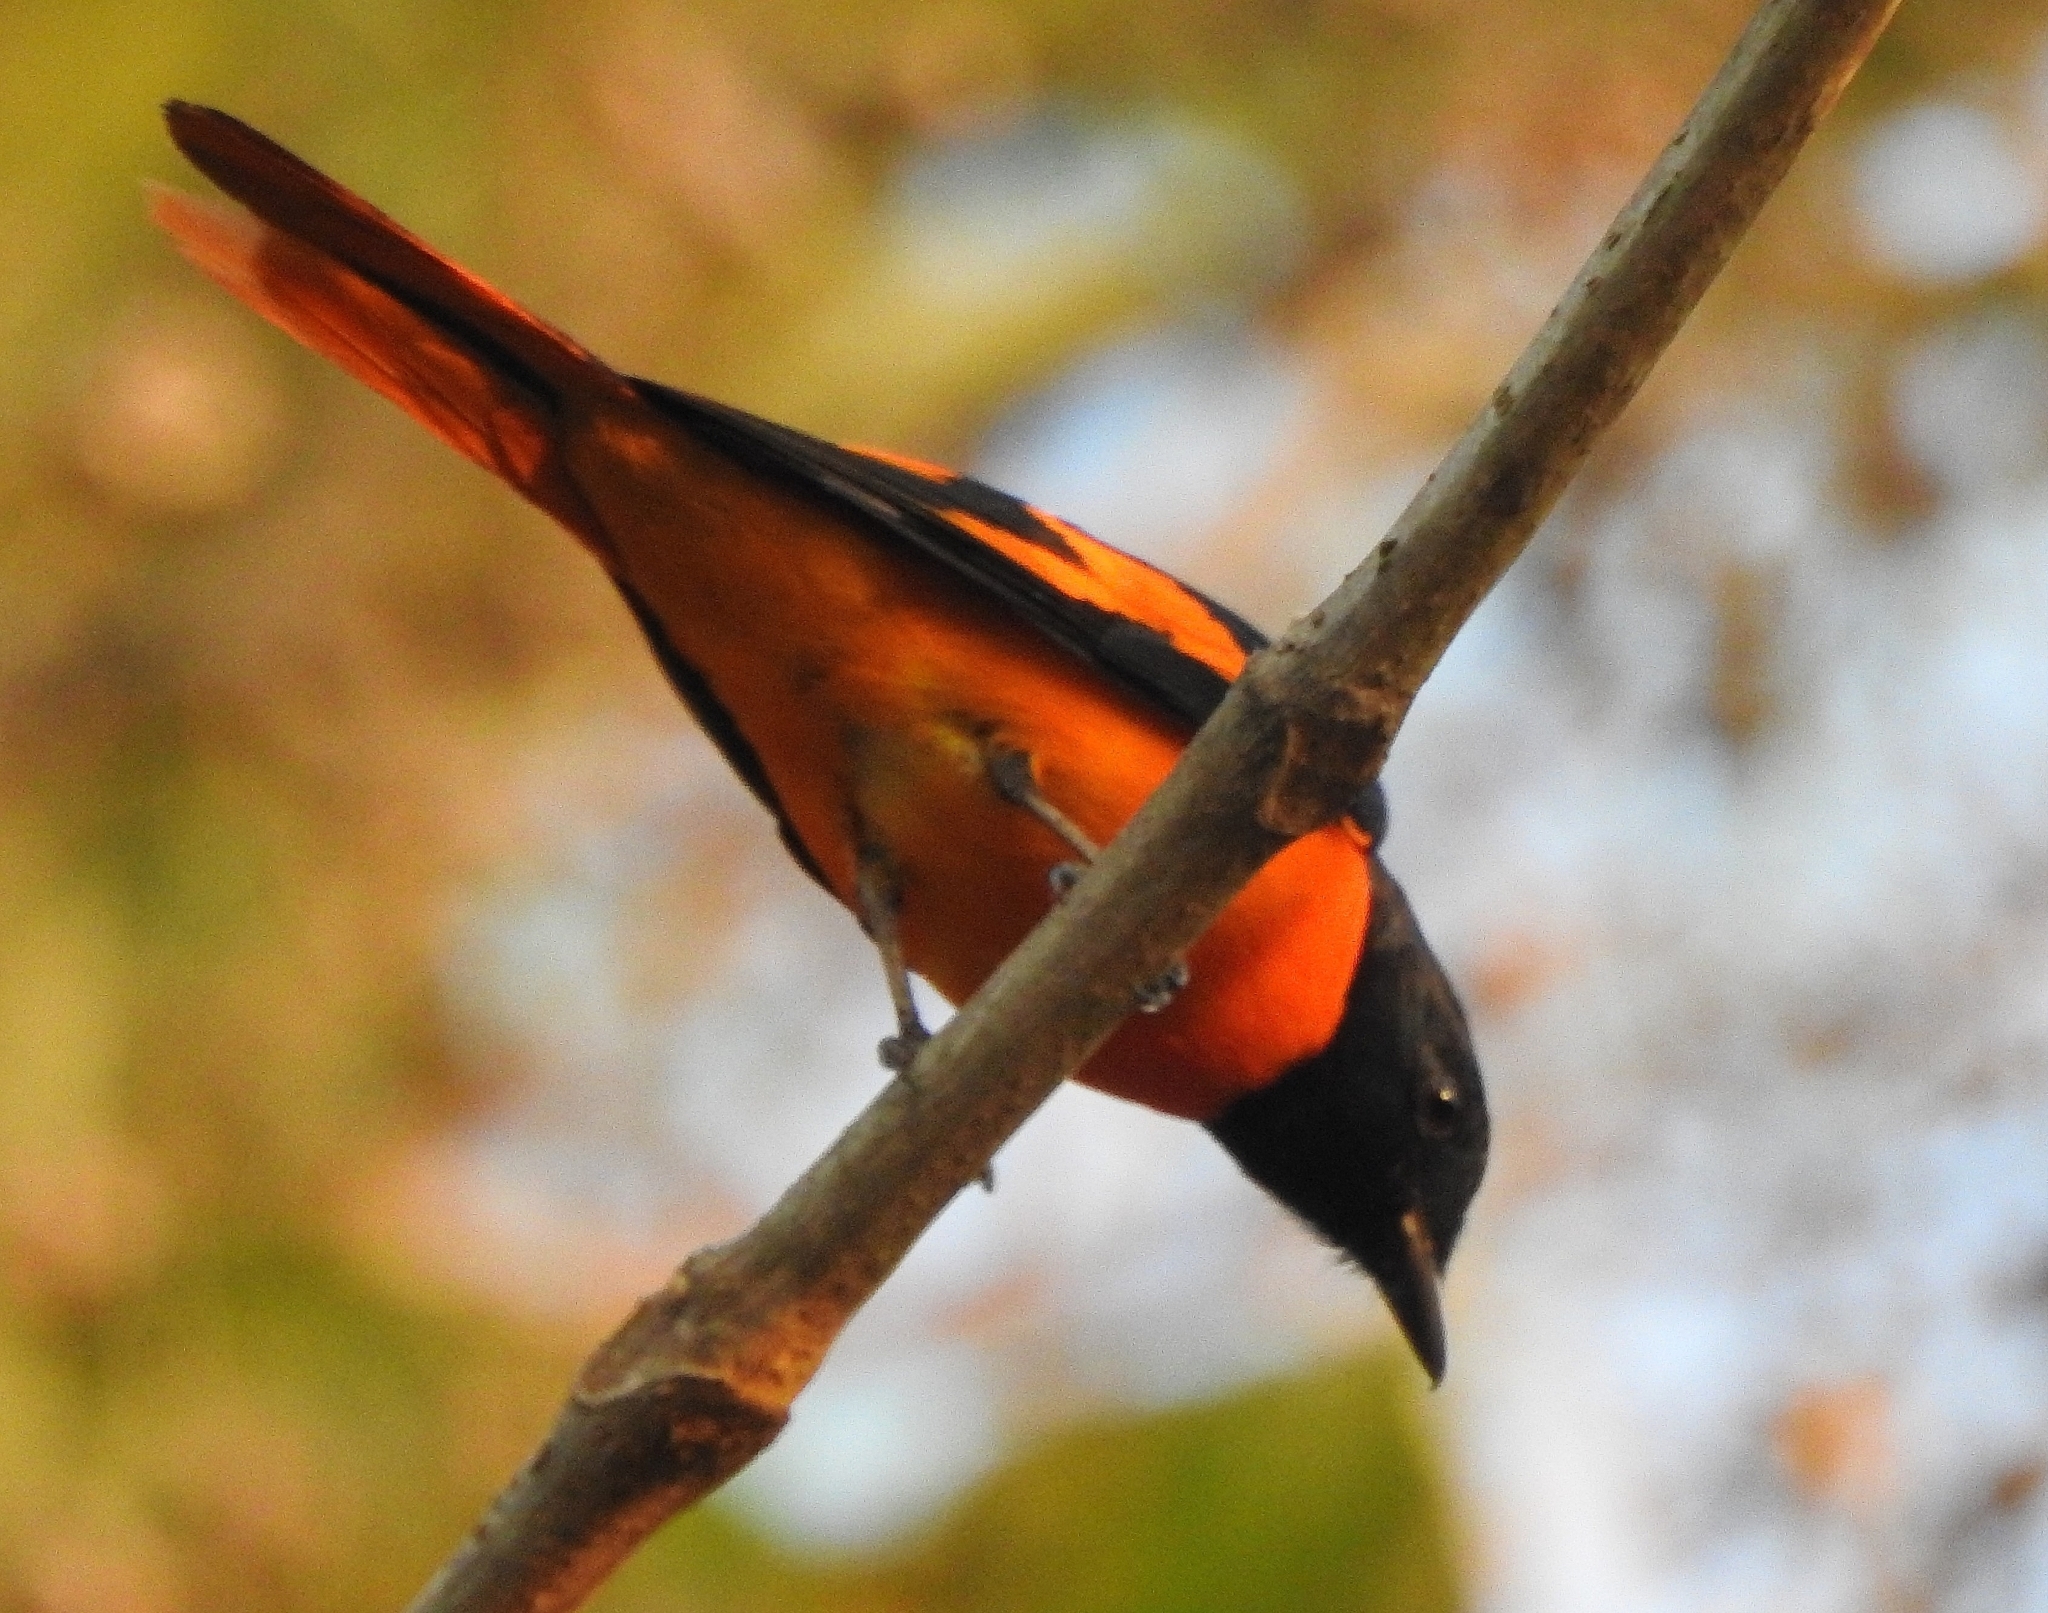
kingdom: Animalia
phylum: Chordata
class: Aves
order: Passeriformes
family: Campephagidae
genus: Pericrocotus
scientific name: Pericrocotus flammeus
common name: Orange minivet
